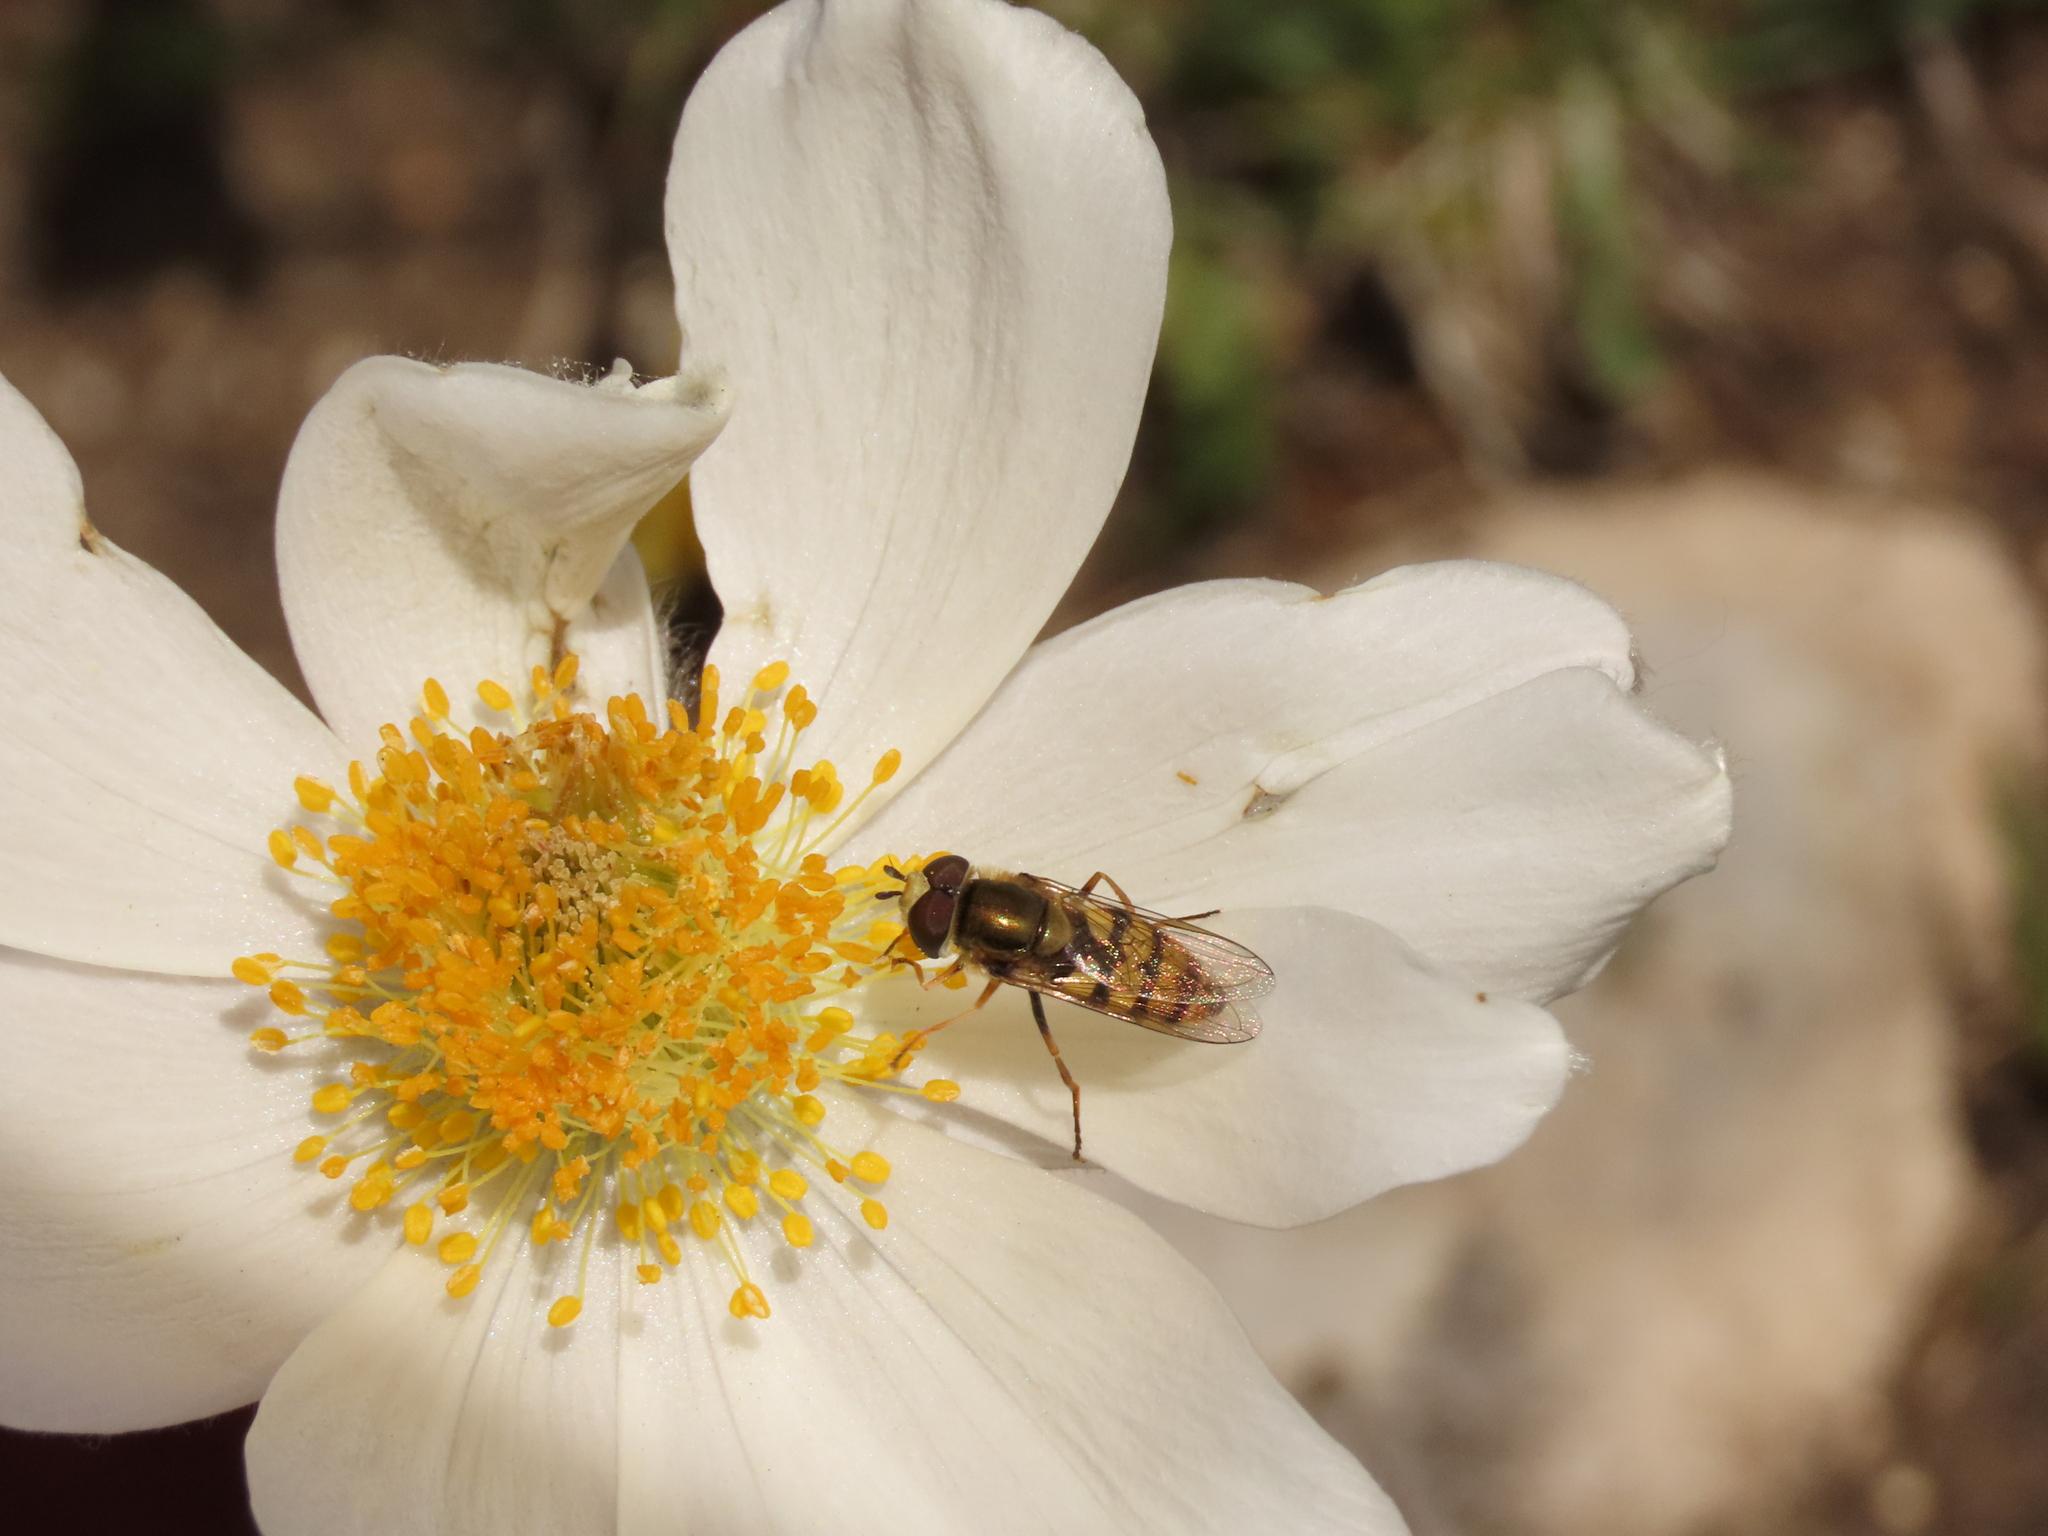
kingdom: Plantae
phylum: Tracheophyta
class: Magnoliopsida
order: Ranunculales
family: Ranunculaceae
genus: Pulsatilla
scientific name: Pulsatilla alpina
